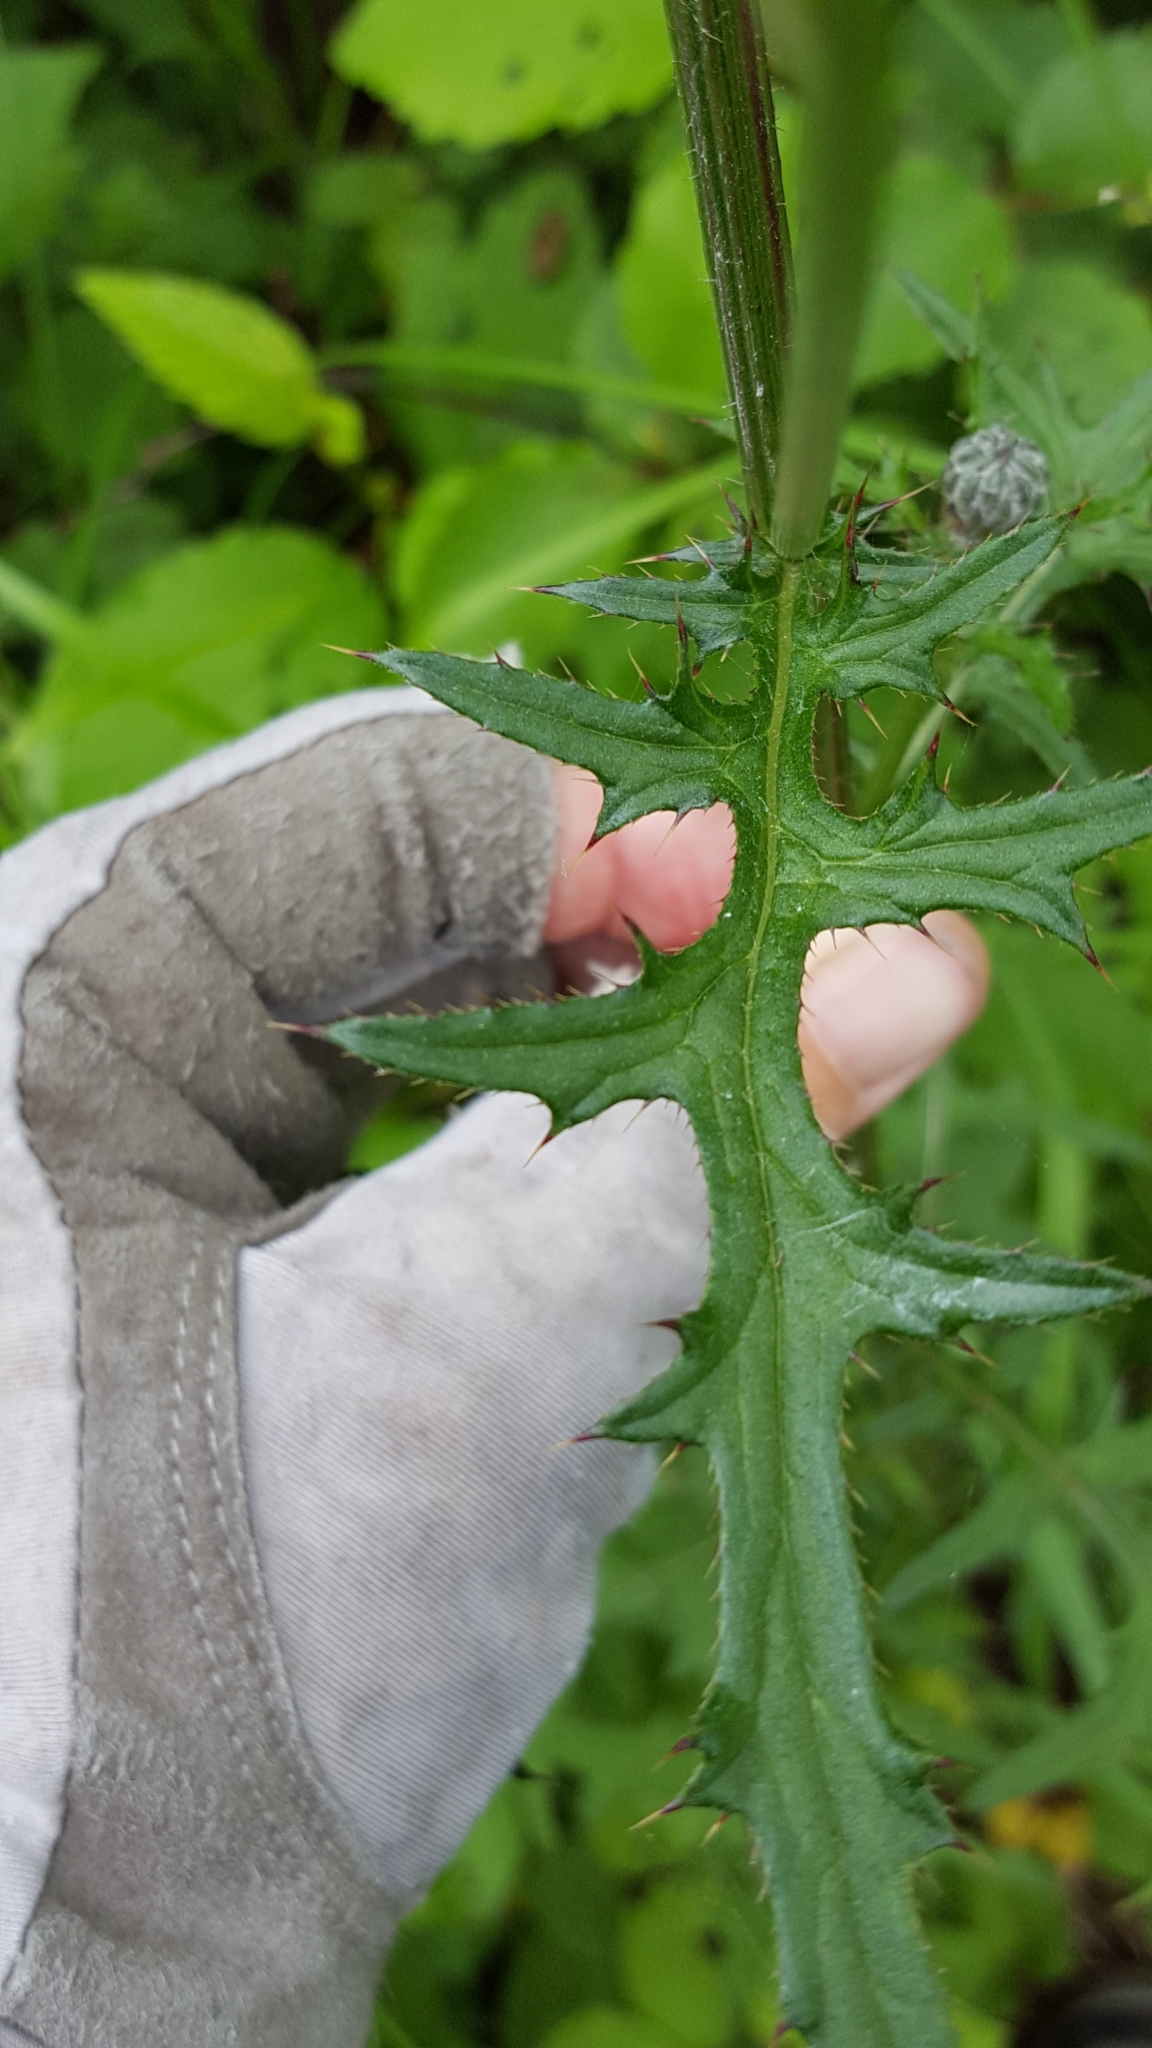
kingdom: Plantae
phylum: Tracheophyta
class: Magnoliopsida
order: Asterales
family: Asteraceae
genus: Cirsium
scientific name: Cirsium muticum
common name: Dunce-nettle
